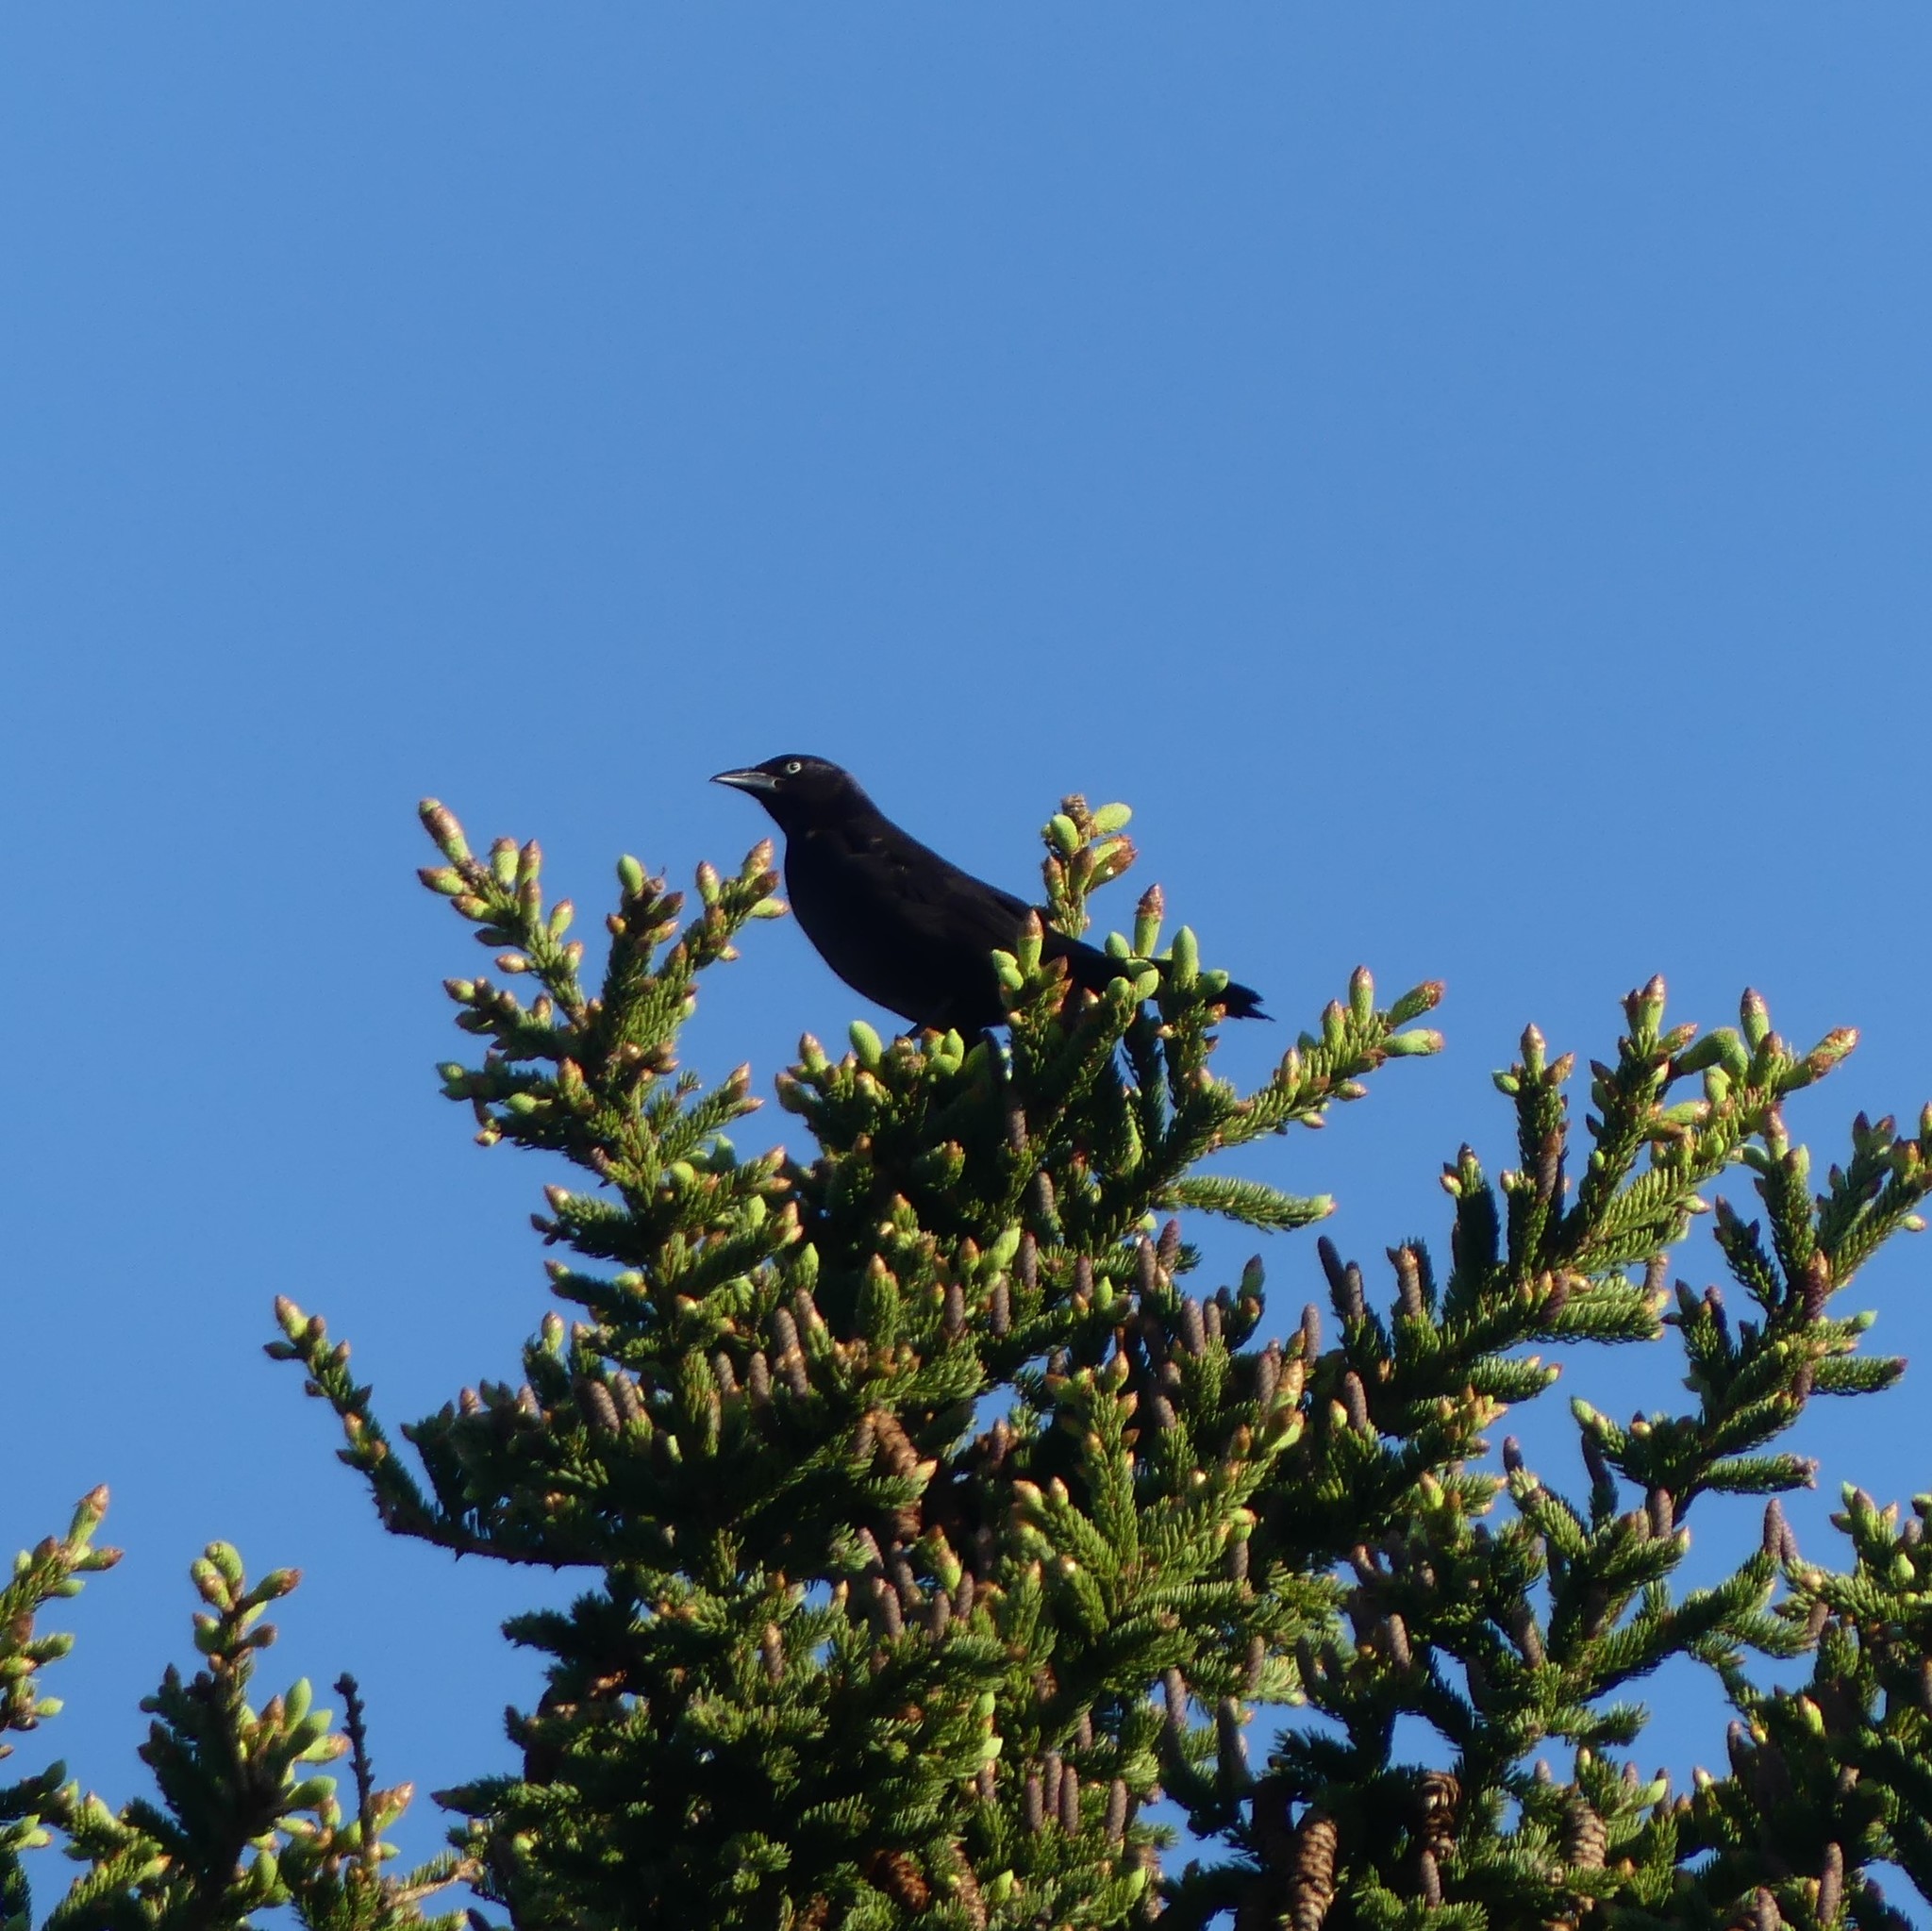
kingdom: Animalia
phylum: Chordata
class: Aves
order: Passeriformes
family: Icteridae
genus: Quiscalus
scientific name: Quiscalus quiscula
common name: Common grackle
